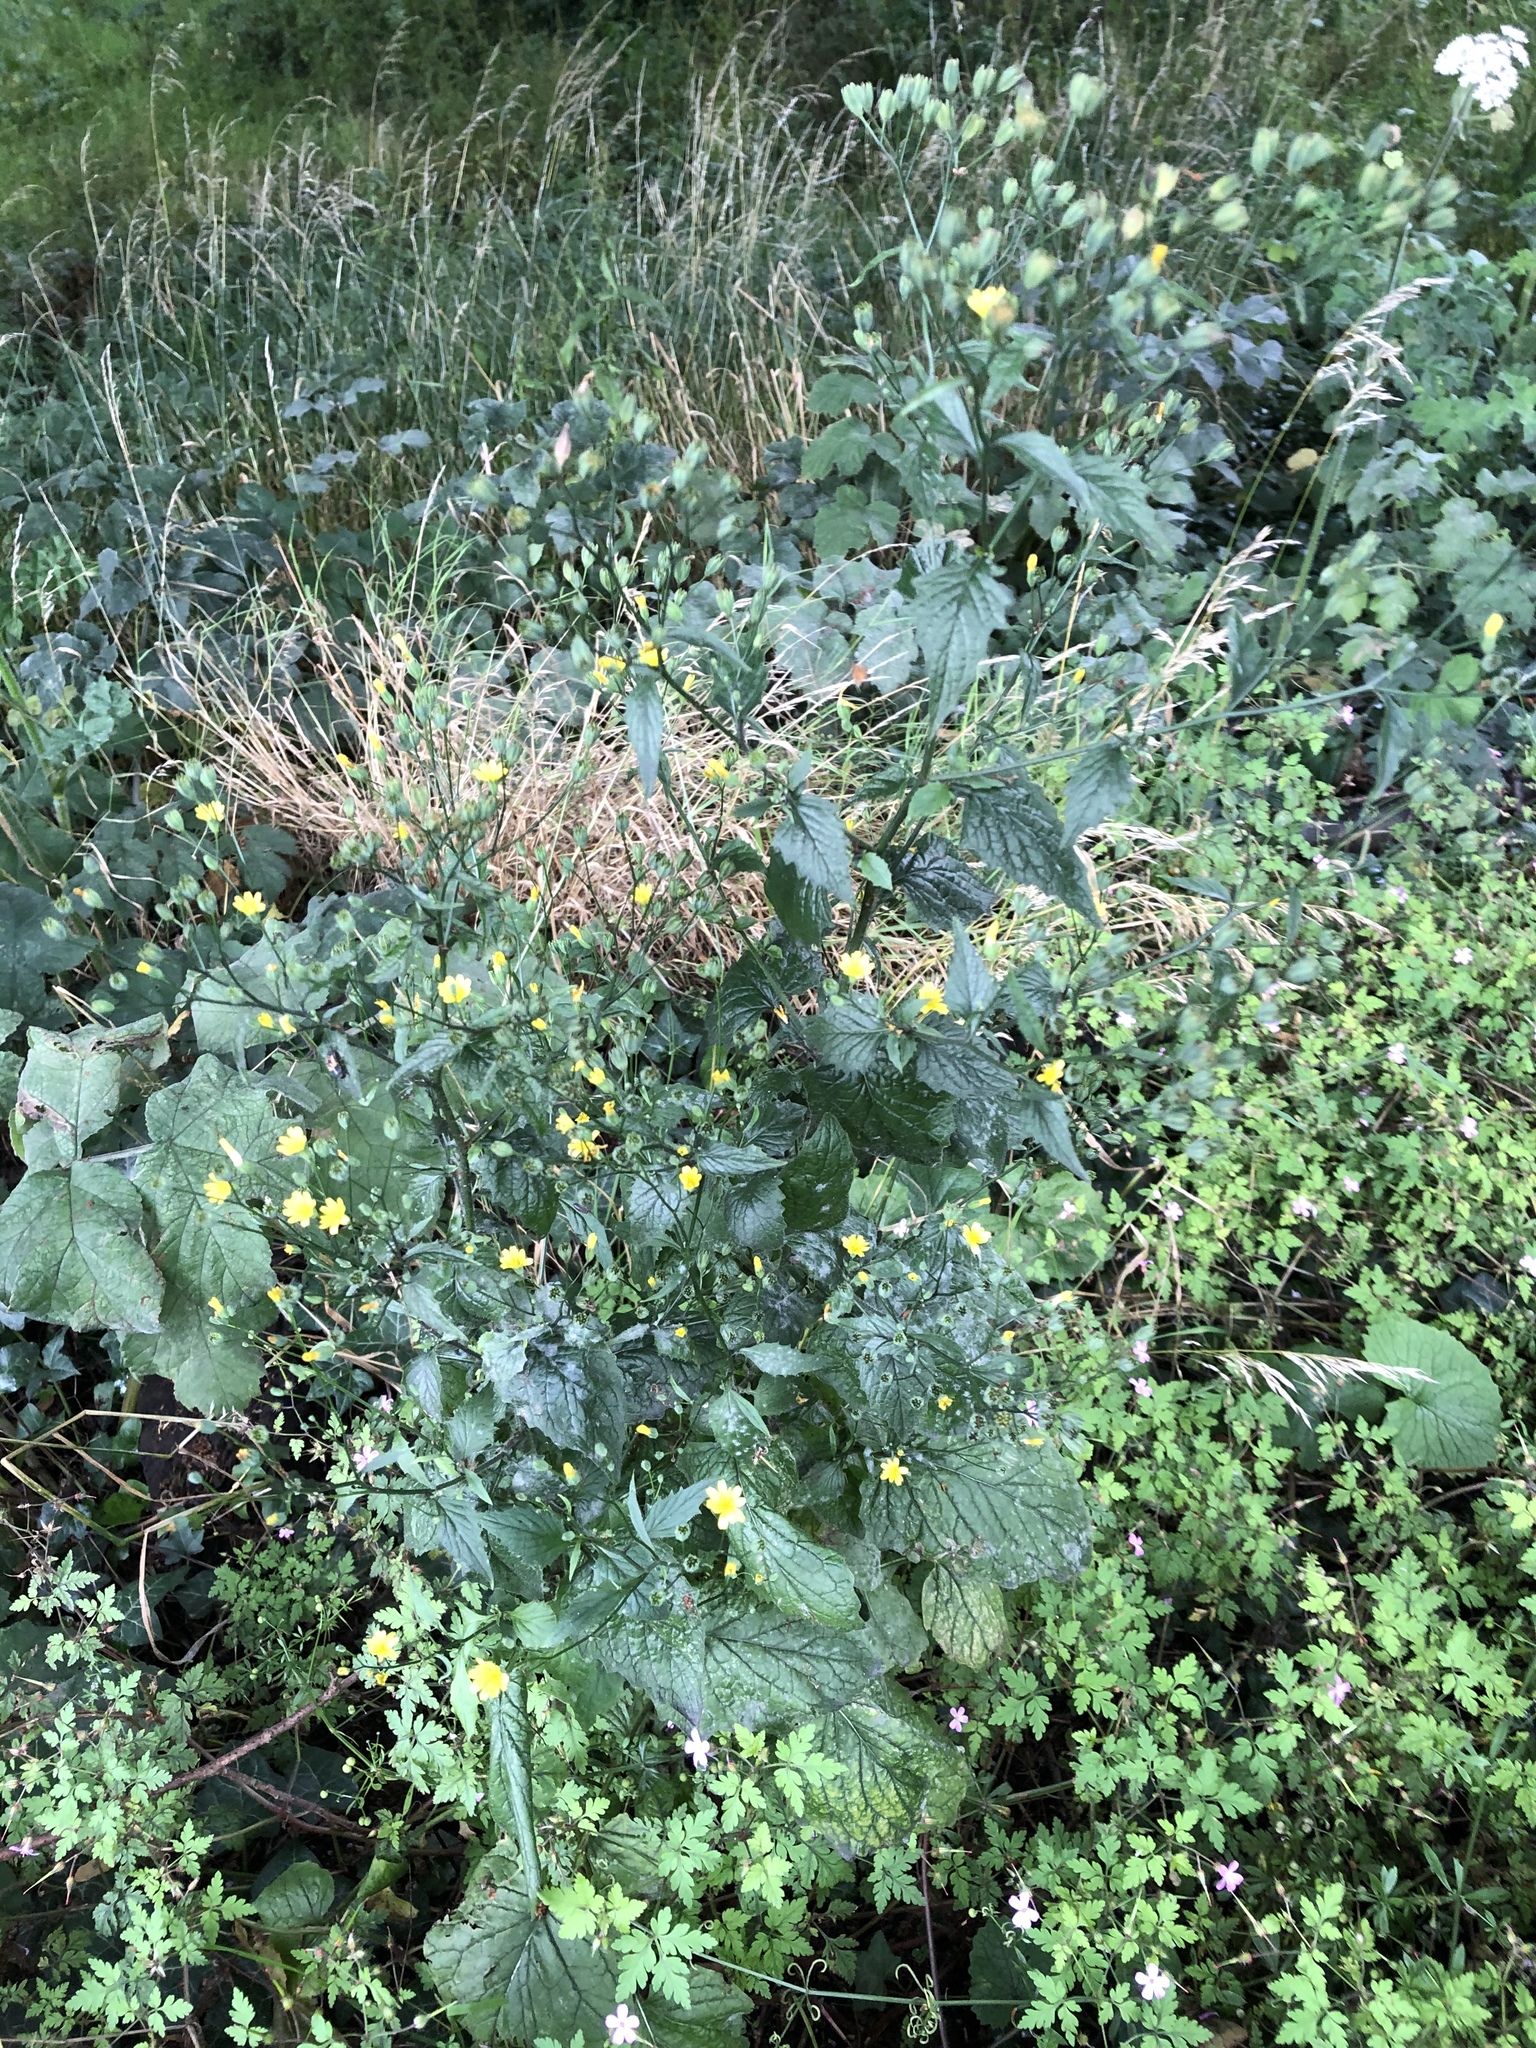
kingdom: Plantae
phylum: Tracheophyta
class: Magnoliopsida
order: Asterales
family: Asteraceae
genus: Lapsana
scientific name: Lapsana communis
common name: Nipplewort
